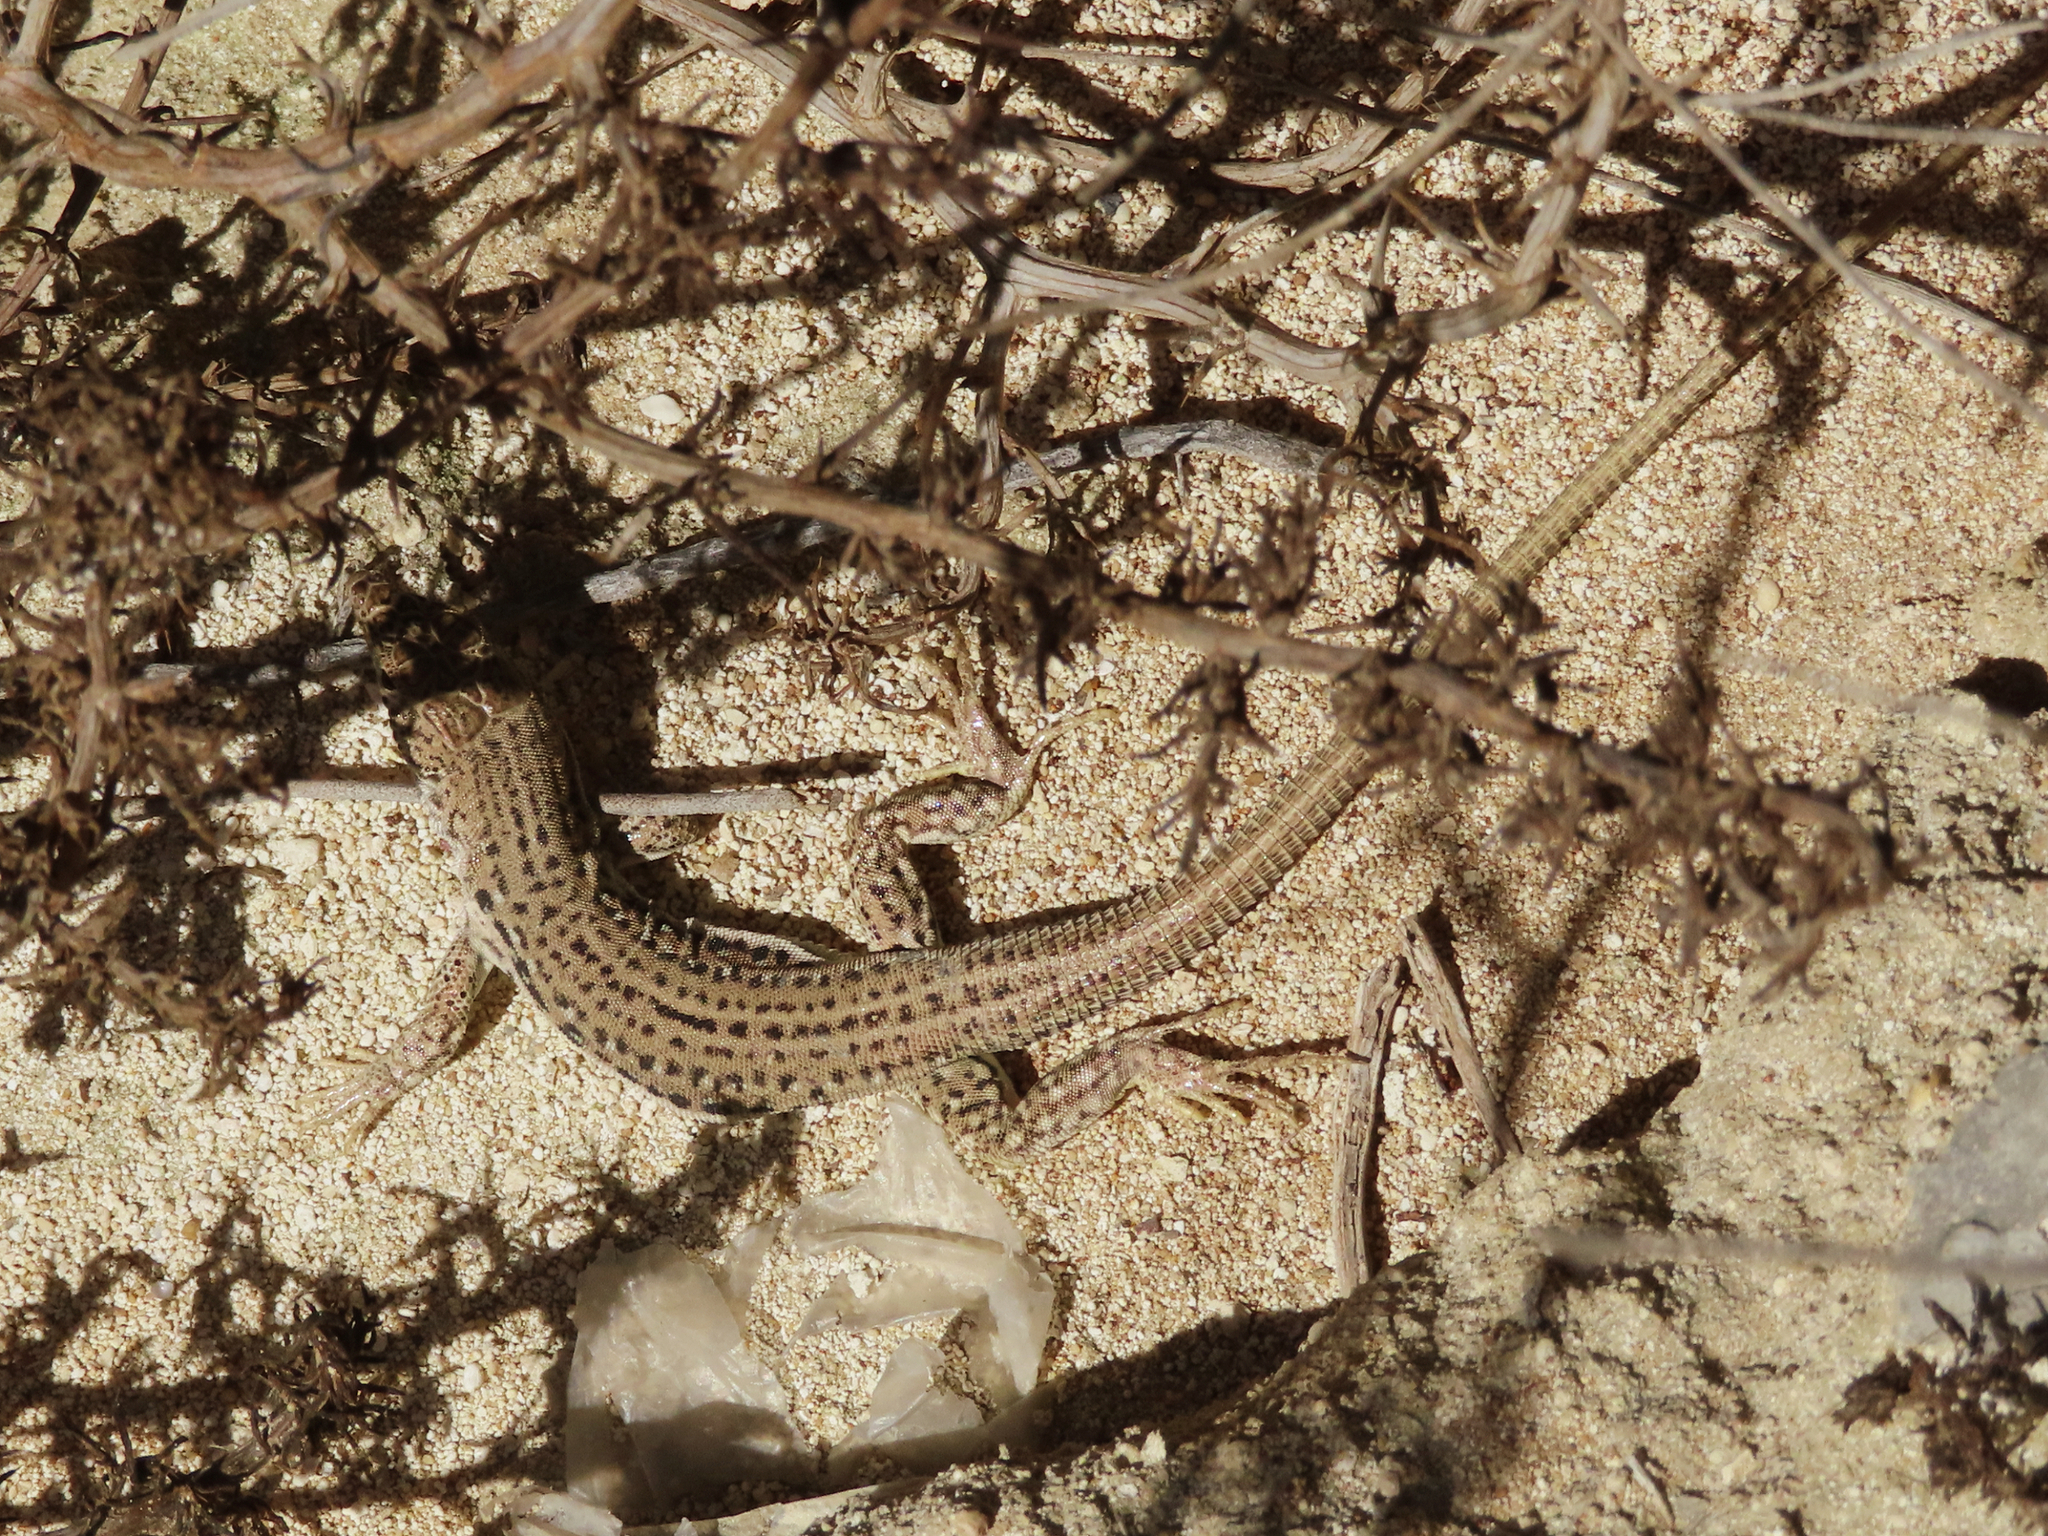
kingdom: Animalia
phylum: Chordata
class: Squamata
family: Lacertidae
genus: Eremias
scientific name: Eremias velox
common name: Central asian racerunner
